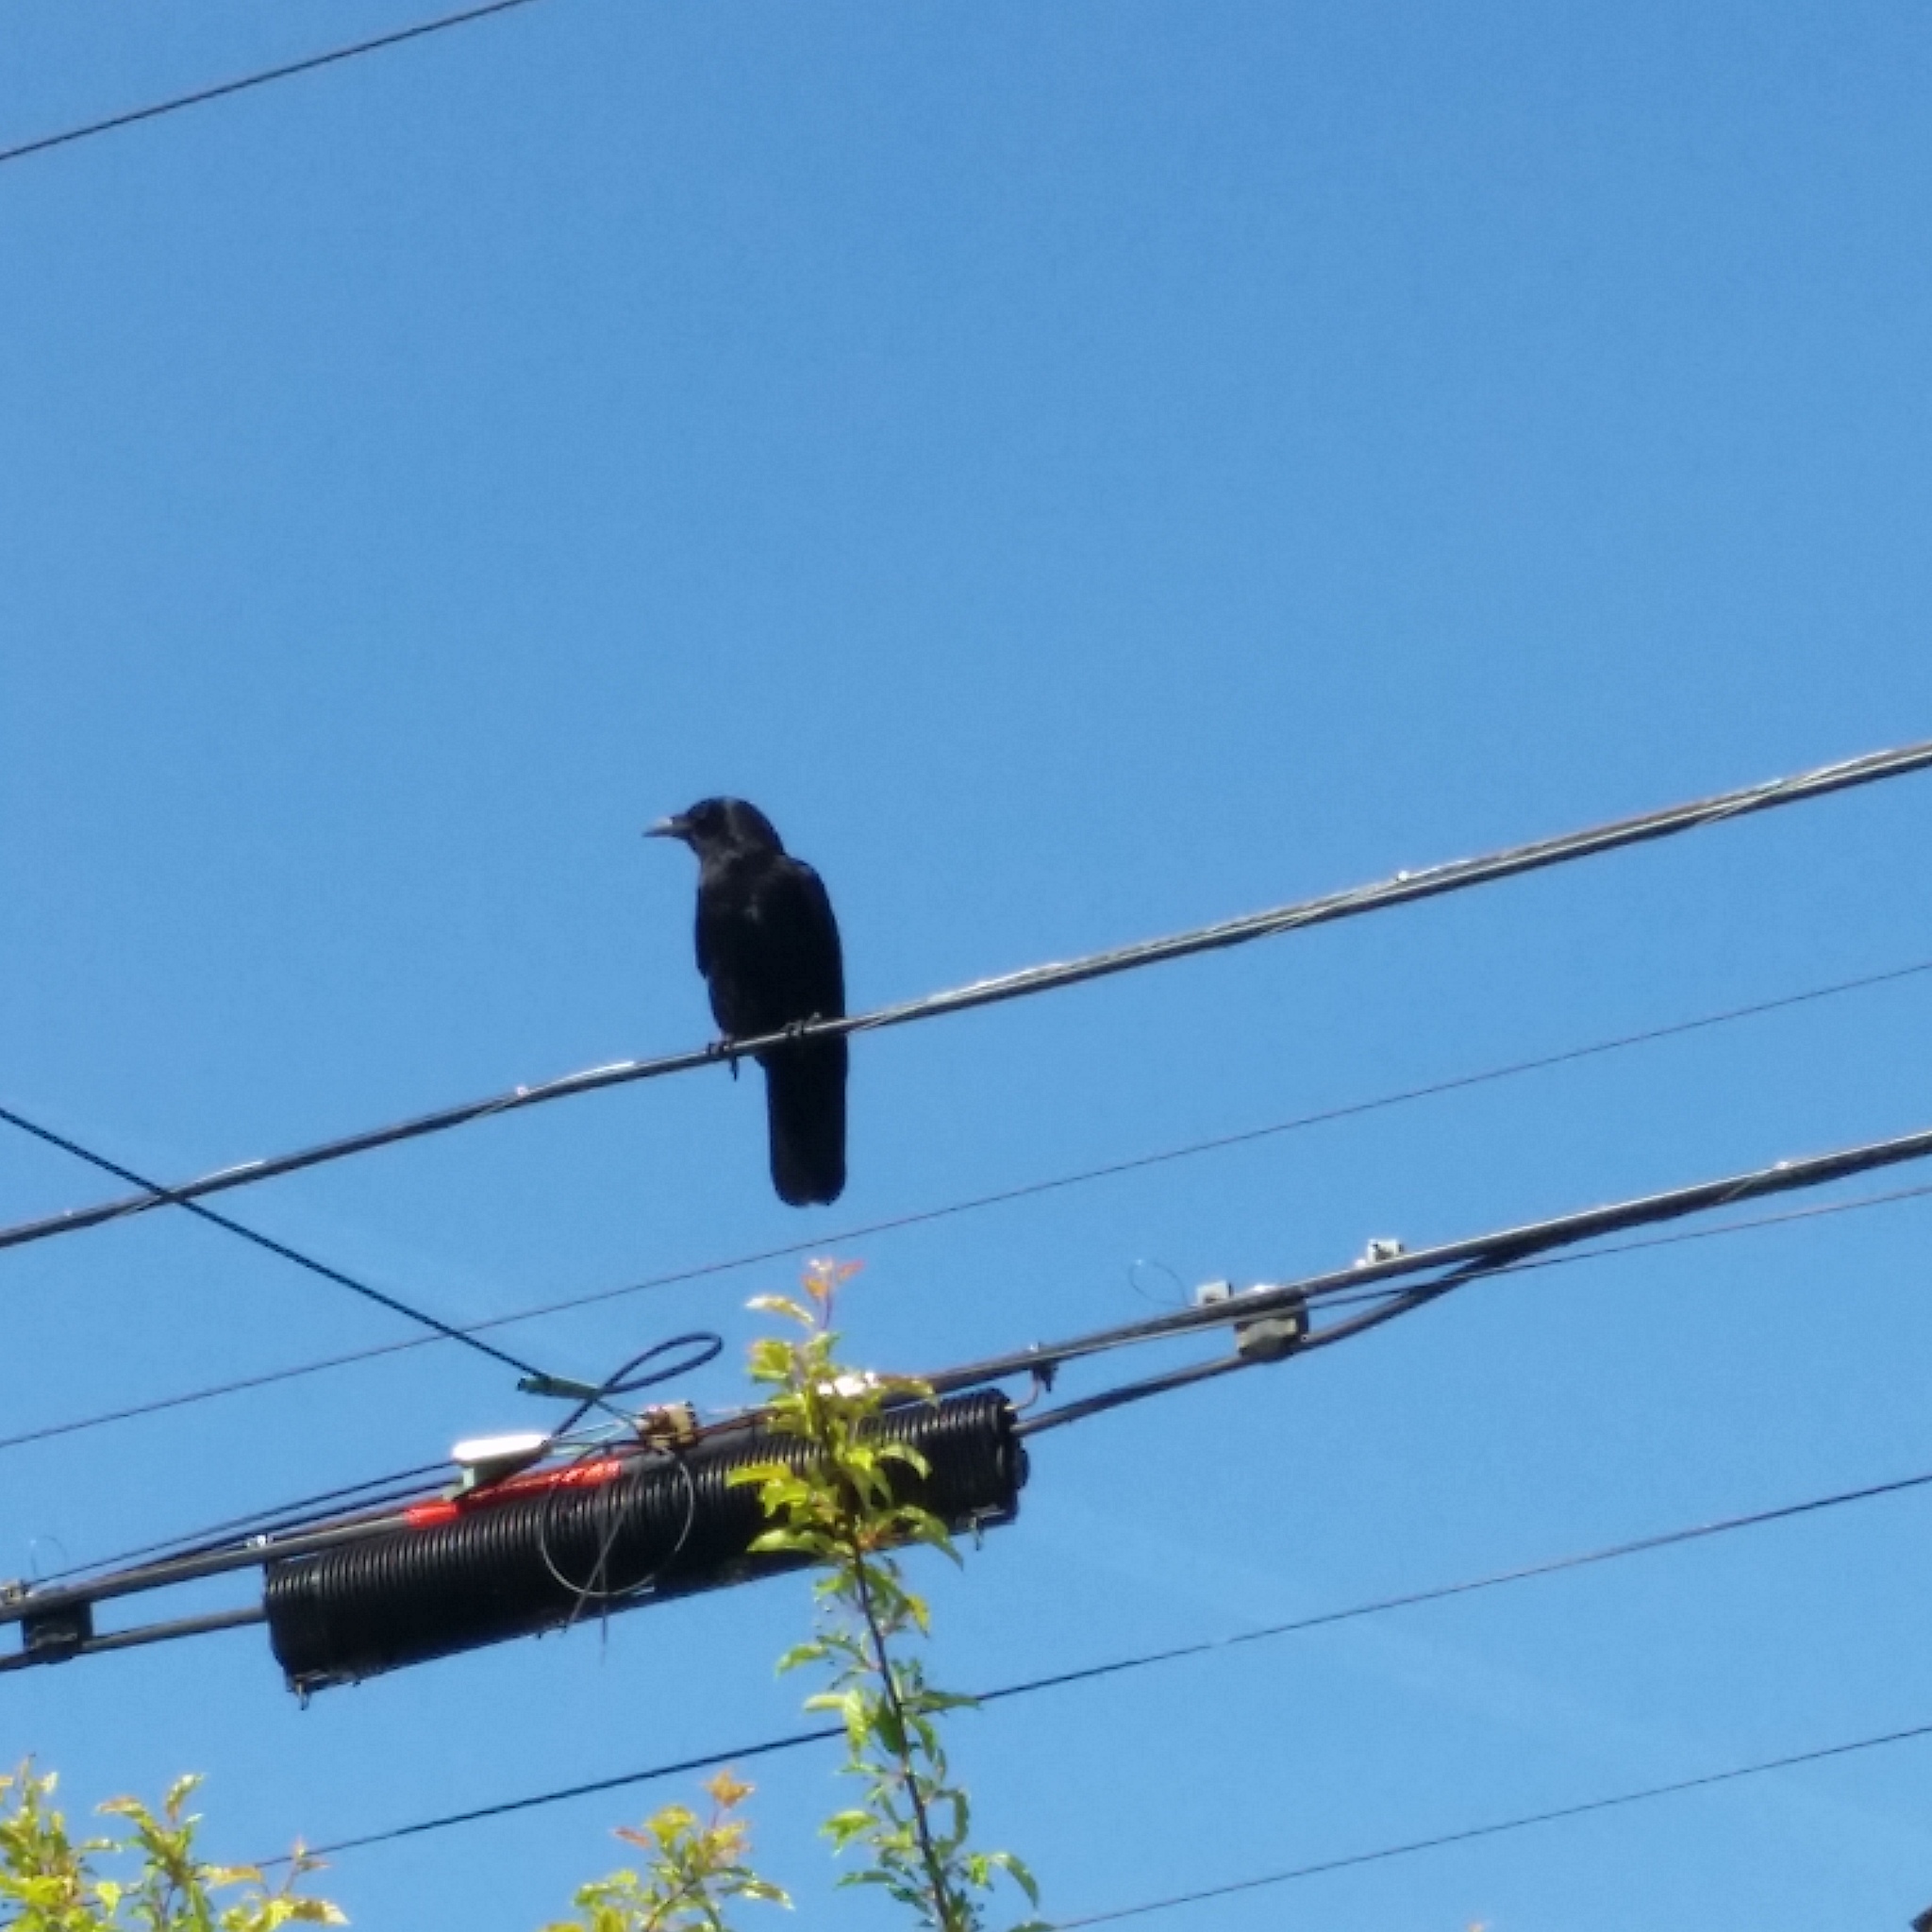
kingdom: Animalia
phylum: Chordata
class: Aves
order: Passeriformes
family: Corvidae
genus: Corvus
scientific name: Corvus brachyrhynchos
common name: American crow
